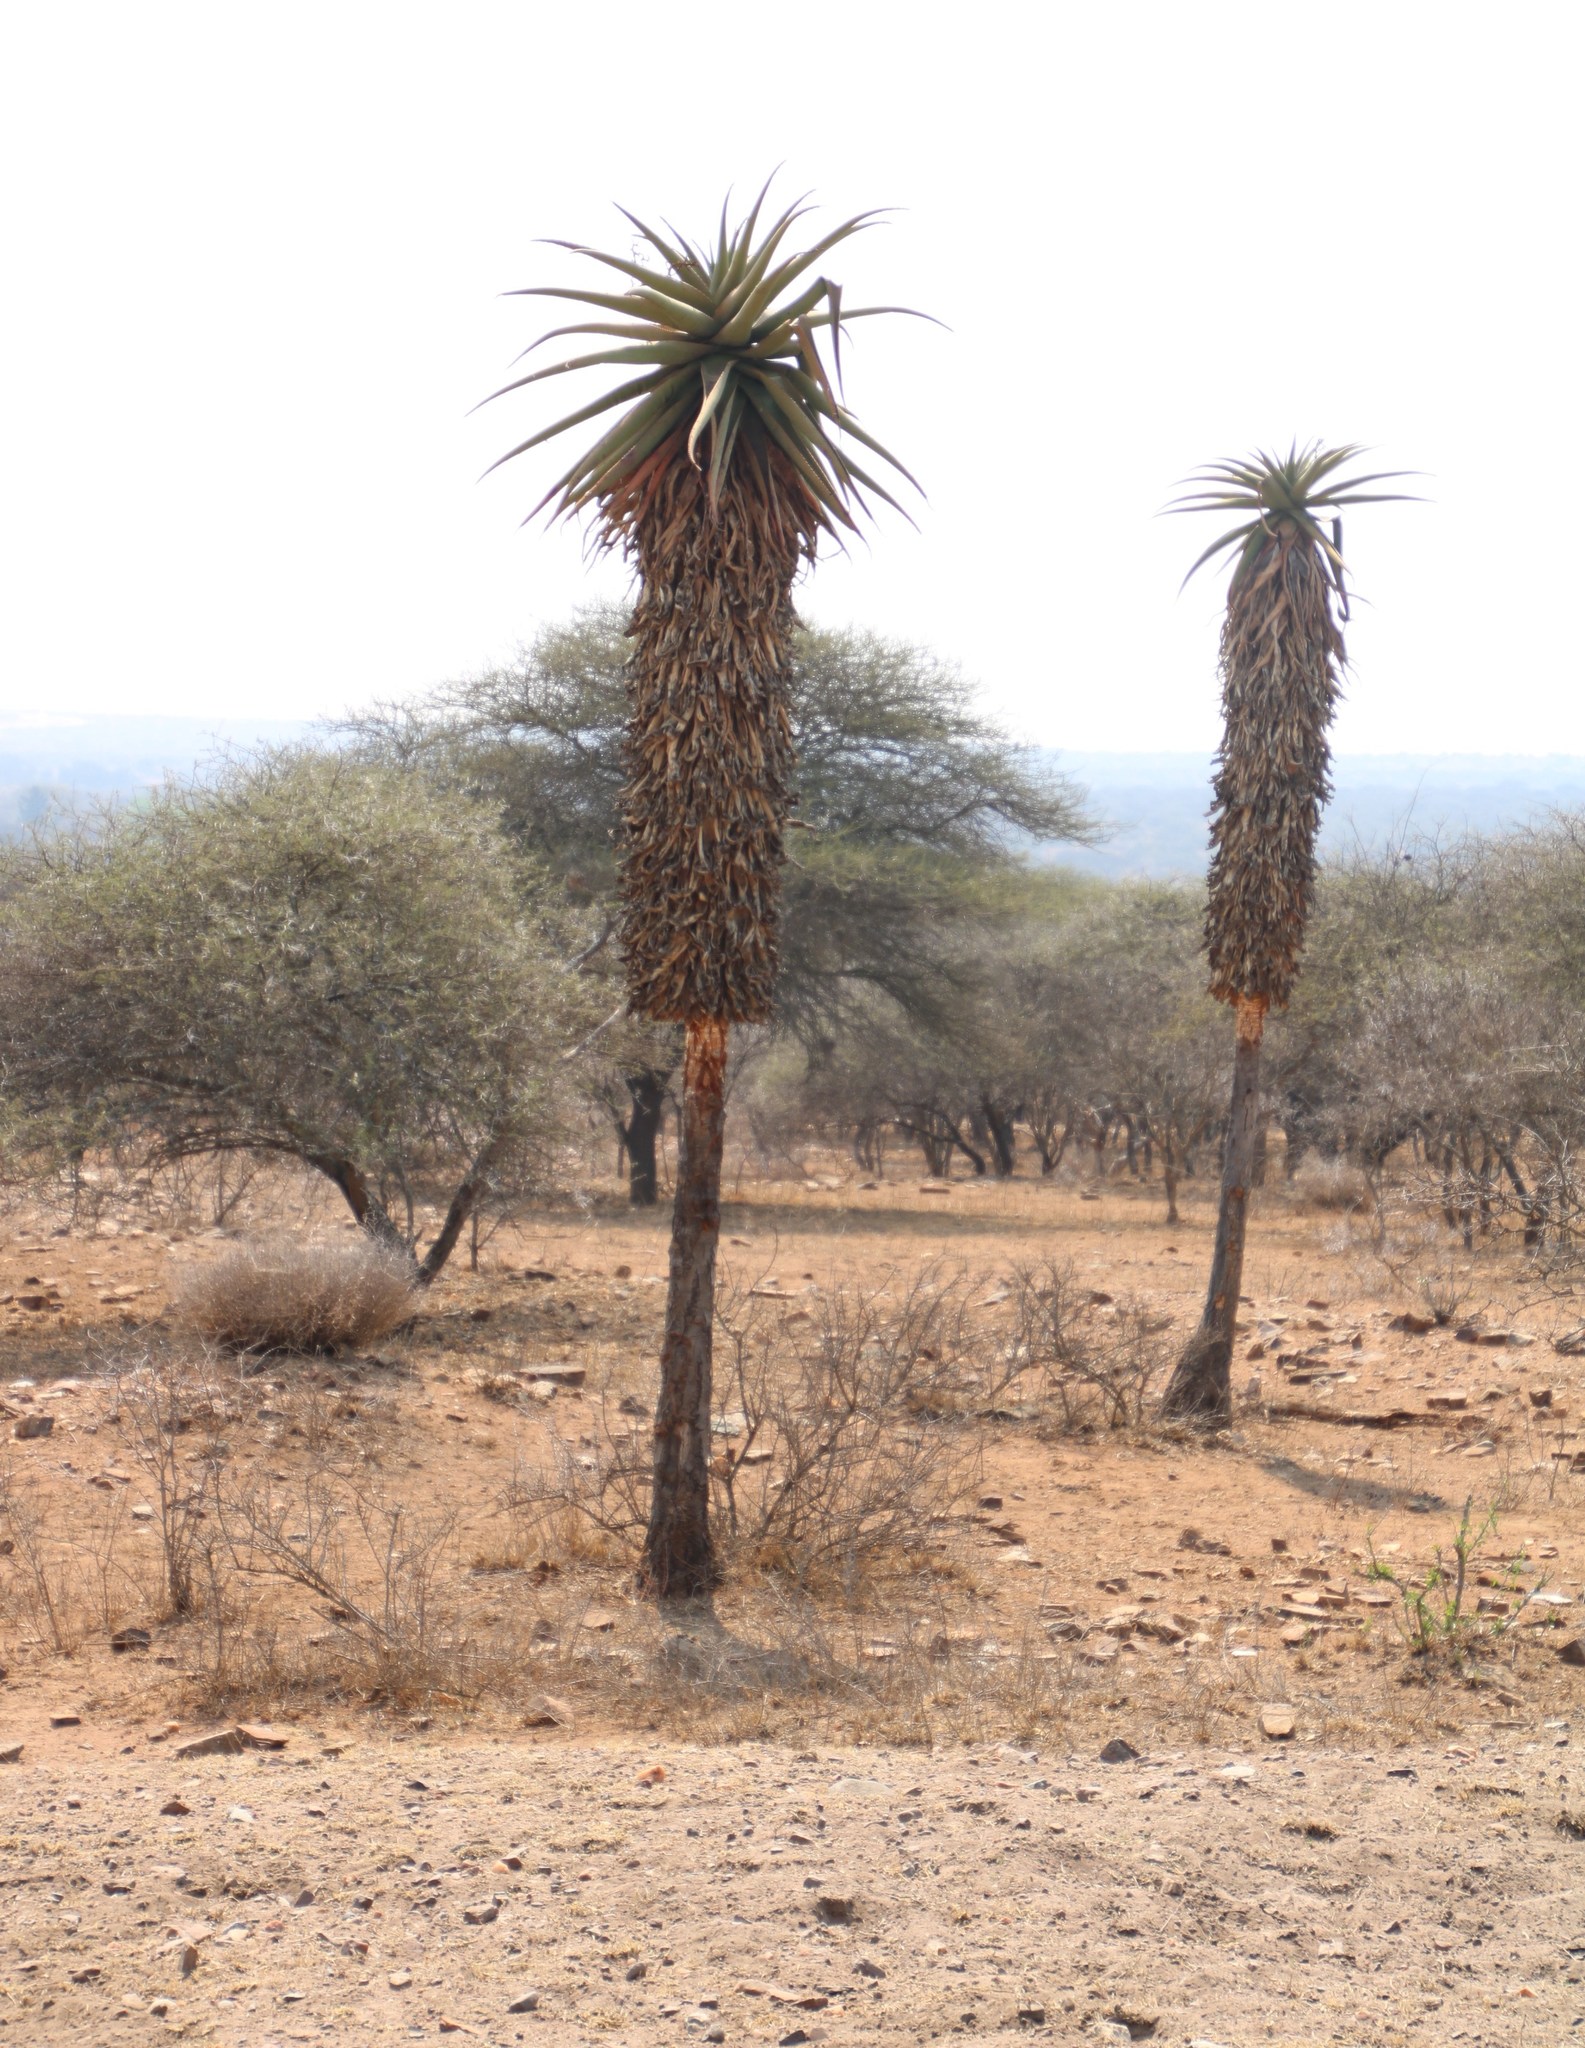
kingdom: Plantae
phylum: Tracheophyta
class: Liliopsida
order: Asparagales
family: Asphodelaceae
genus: Aloe
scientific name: Aloe marlothii
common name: Flat-flowered aloe
